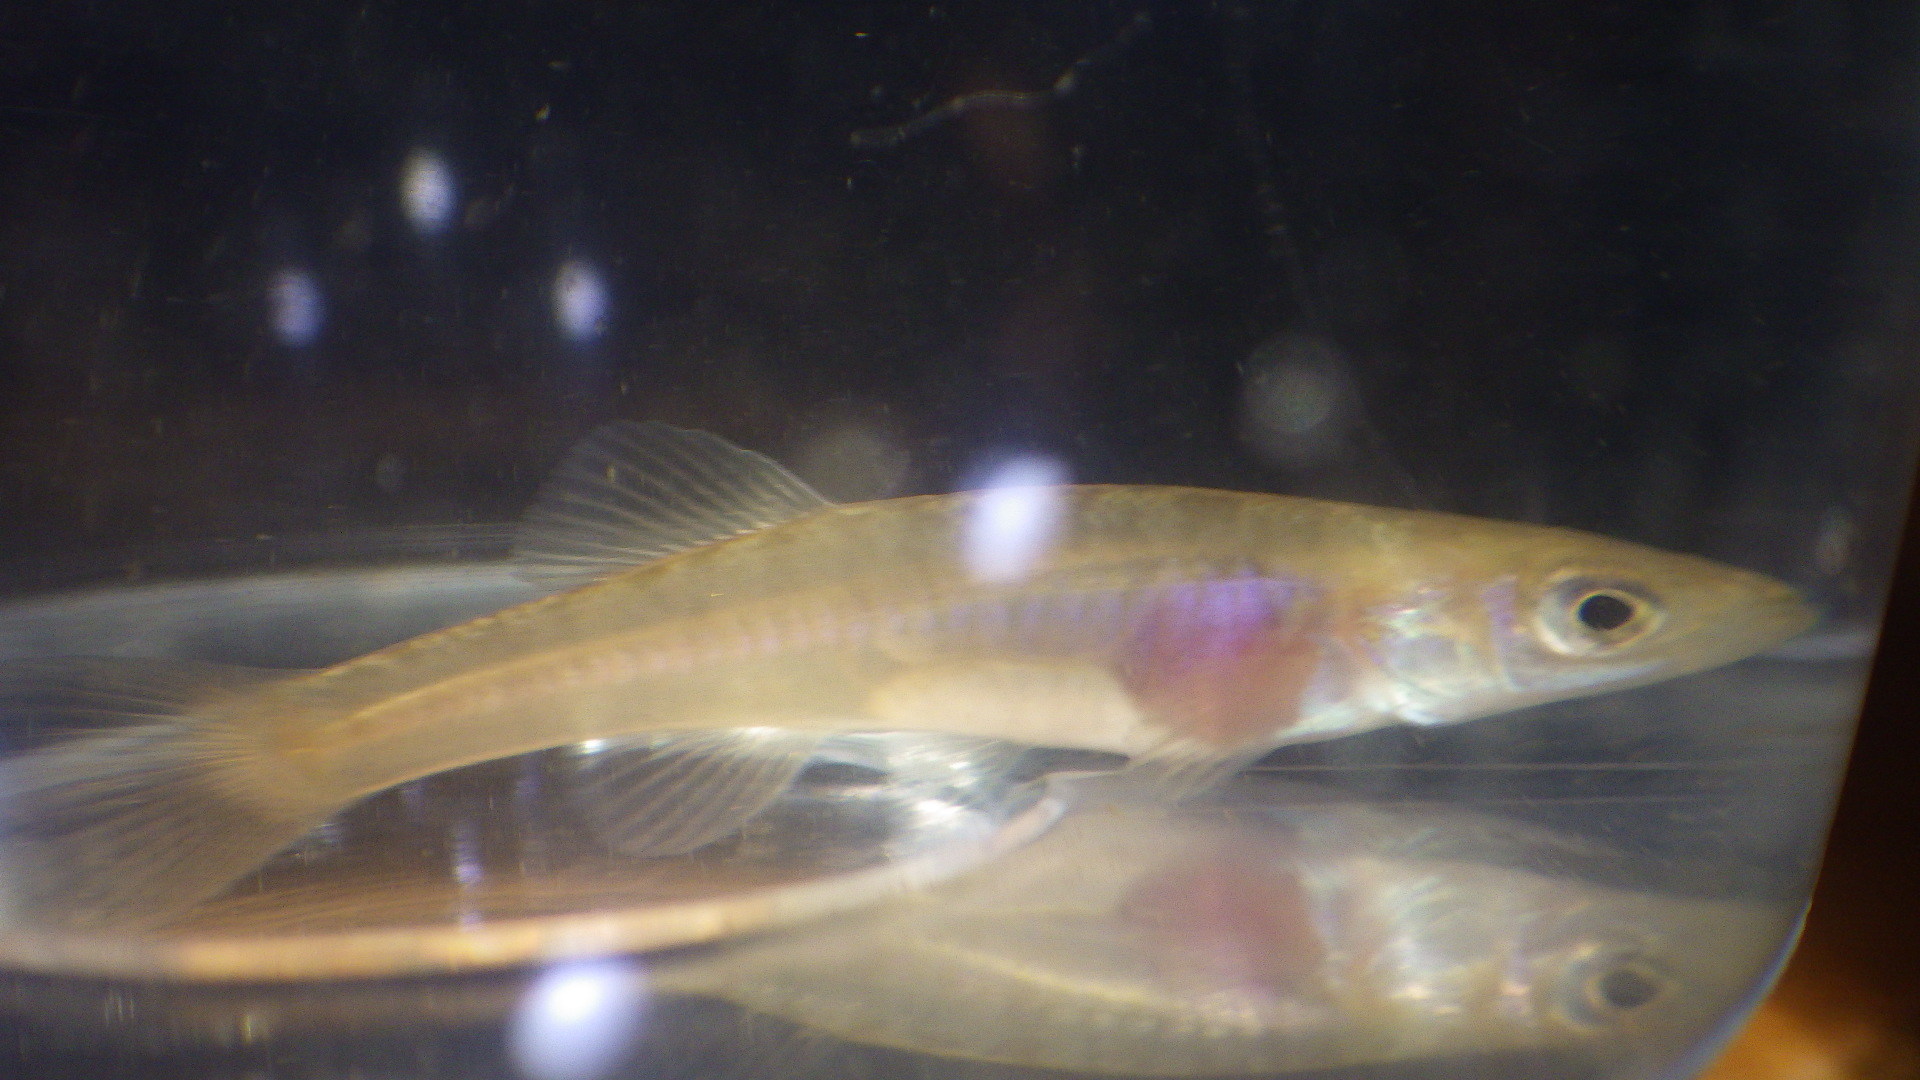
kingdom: Animalia
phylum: Chordata
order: Cyprinodontiformes
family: Fundulidae
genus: Fundulus
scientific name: Fundulus diaphanus
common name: Banded killifish
